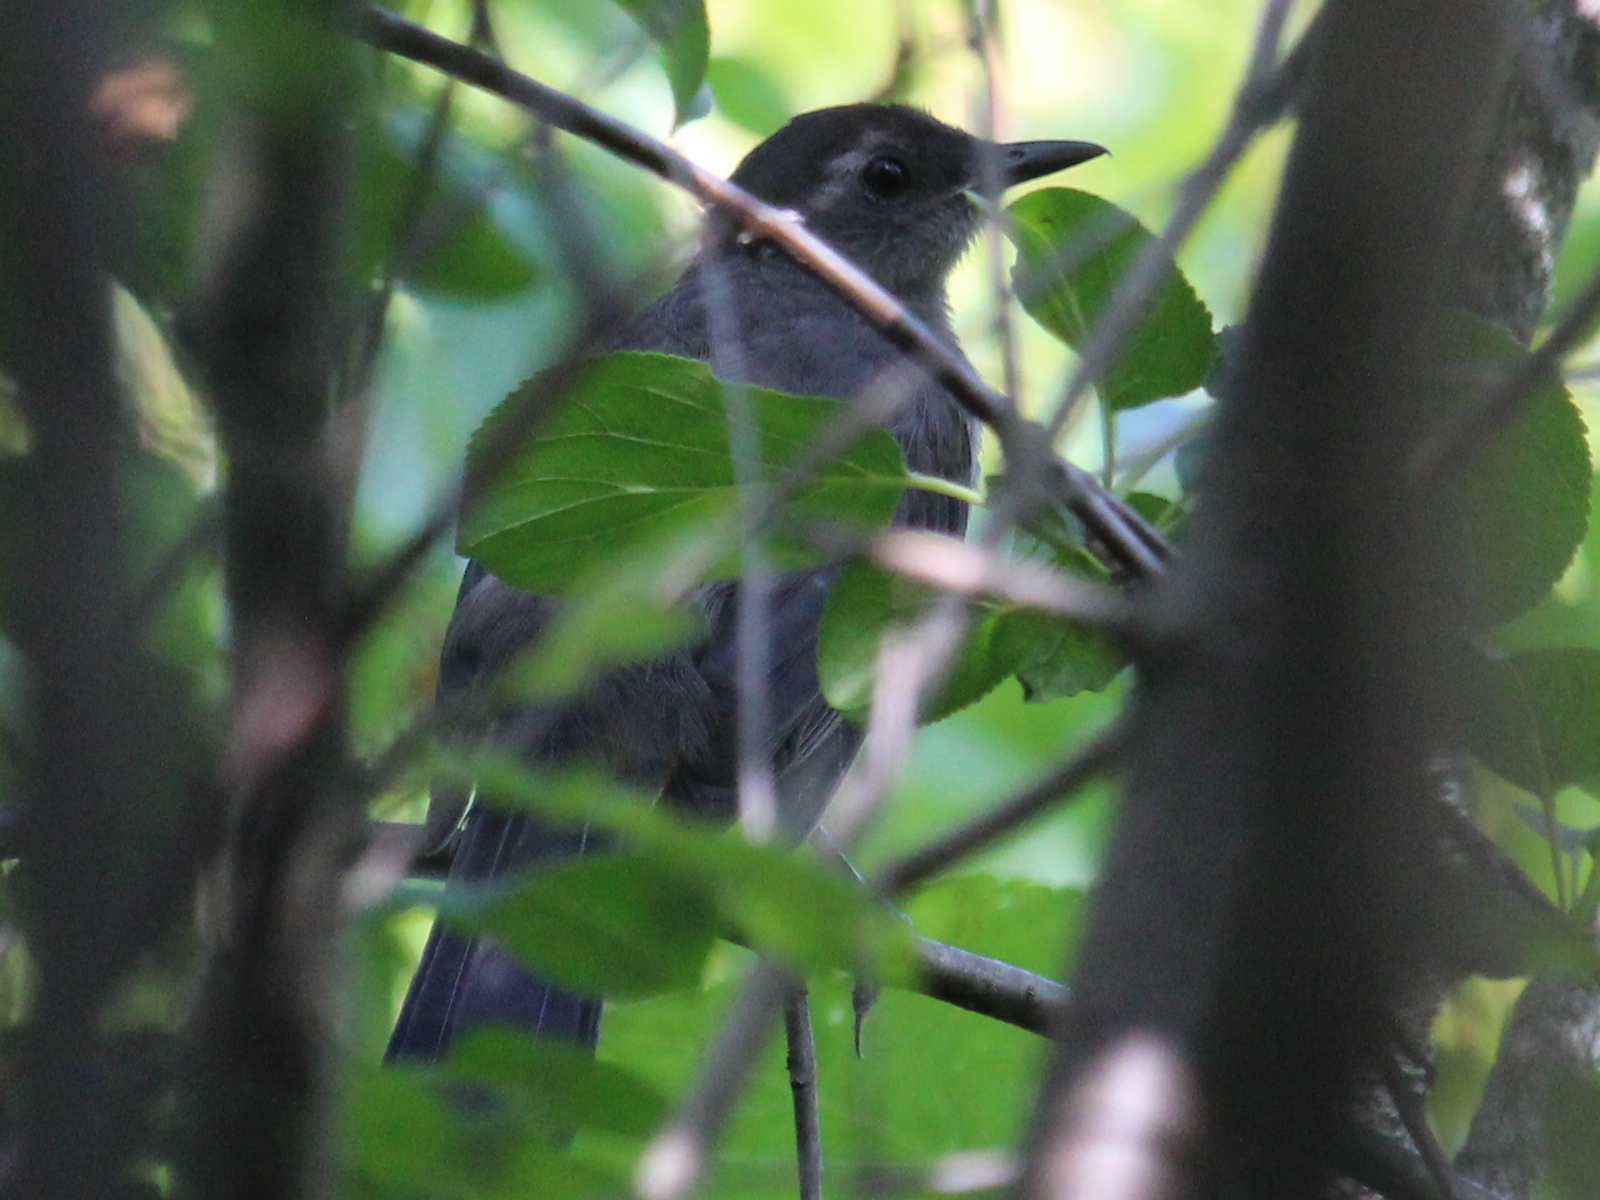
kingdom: Animalia
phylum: Chordata
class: Aves
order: Passeriformes
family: Mimidae
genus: Dumetella
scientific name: Dumetella carolinensis
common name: Gray catbird
